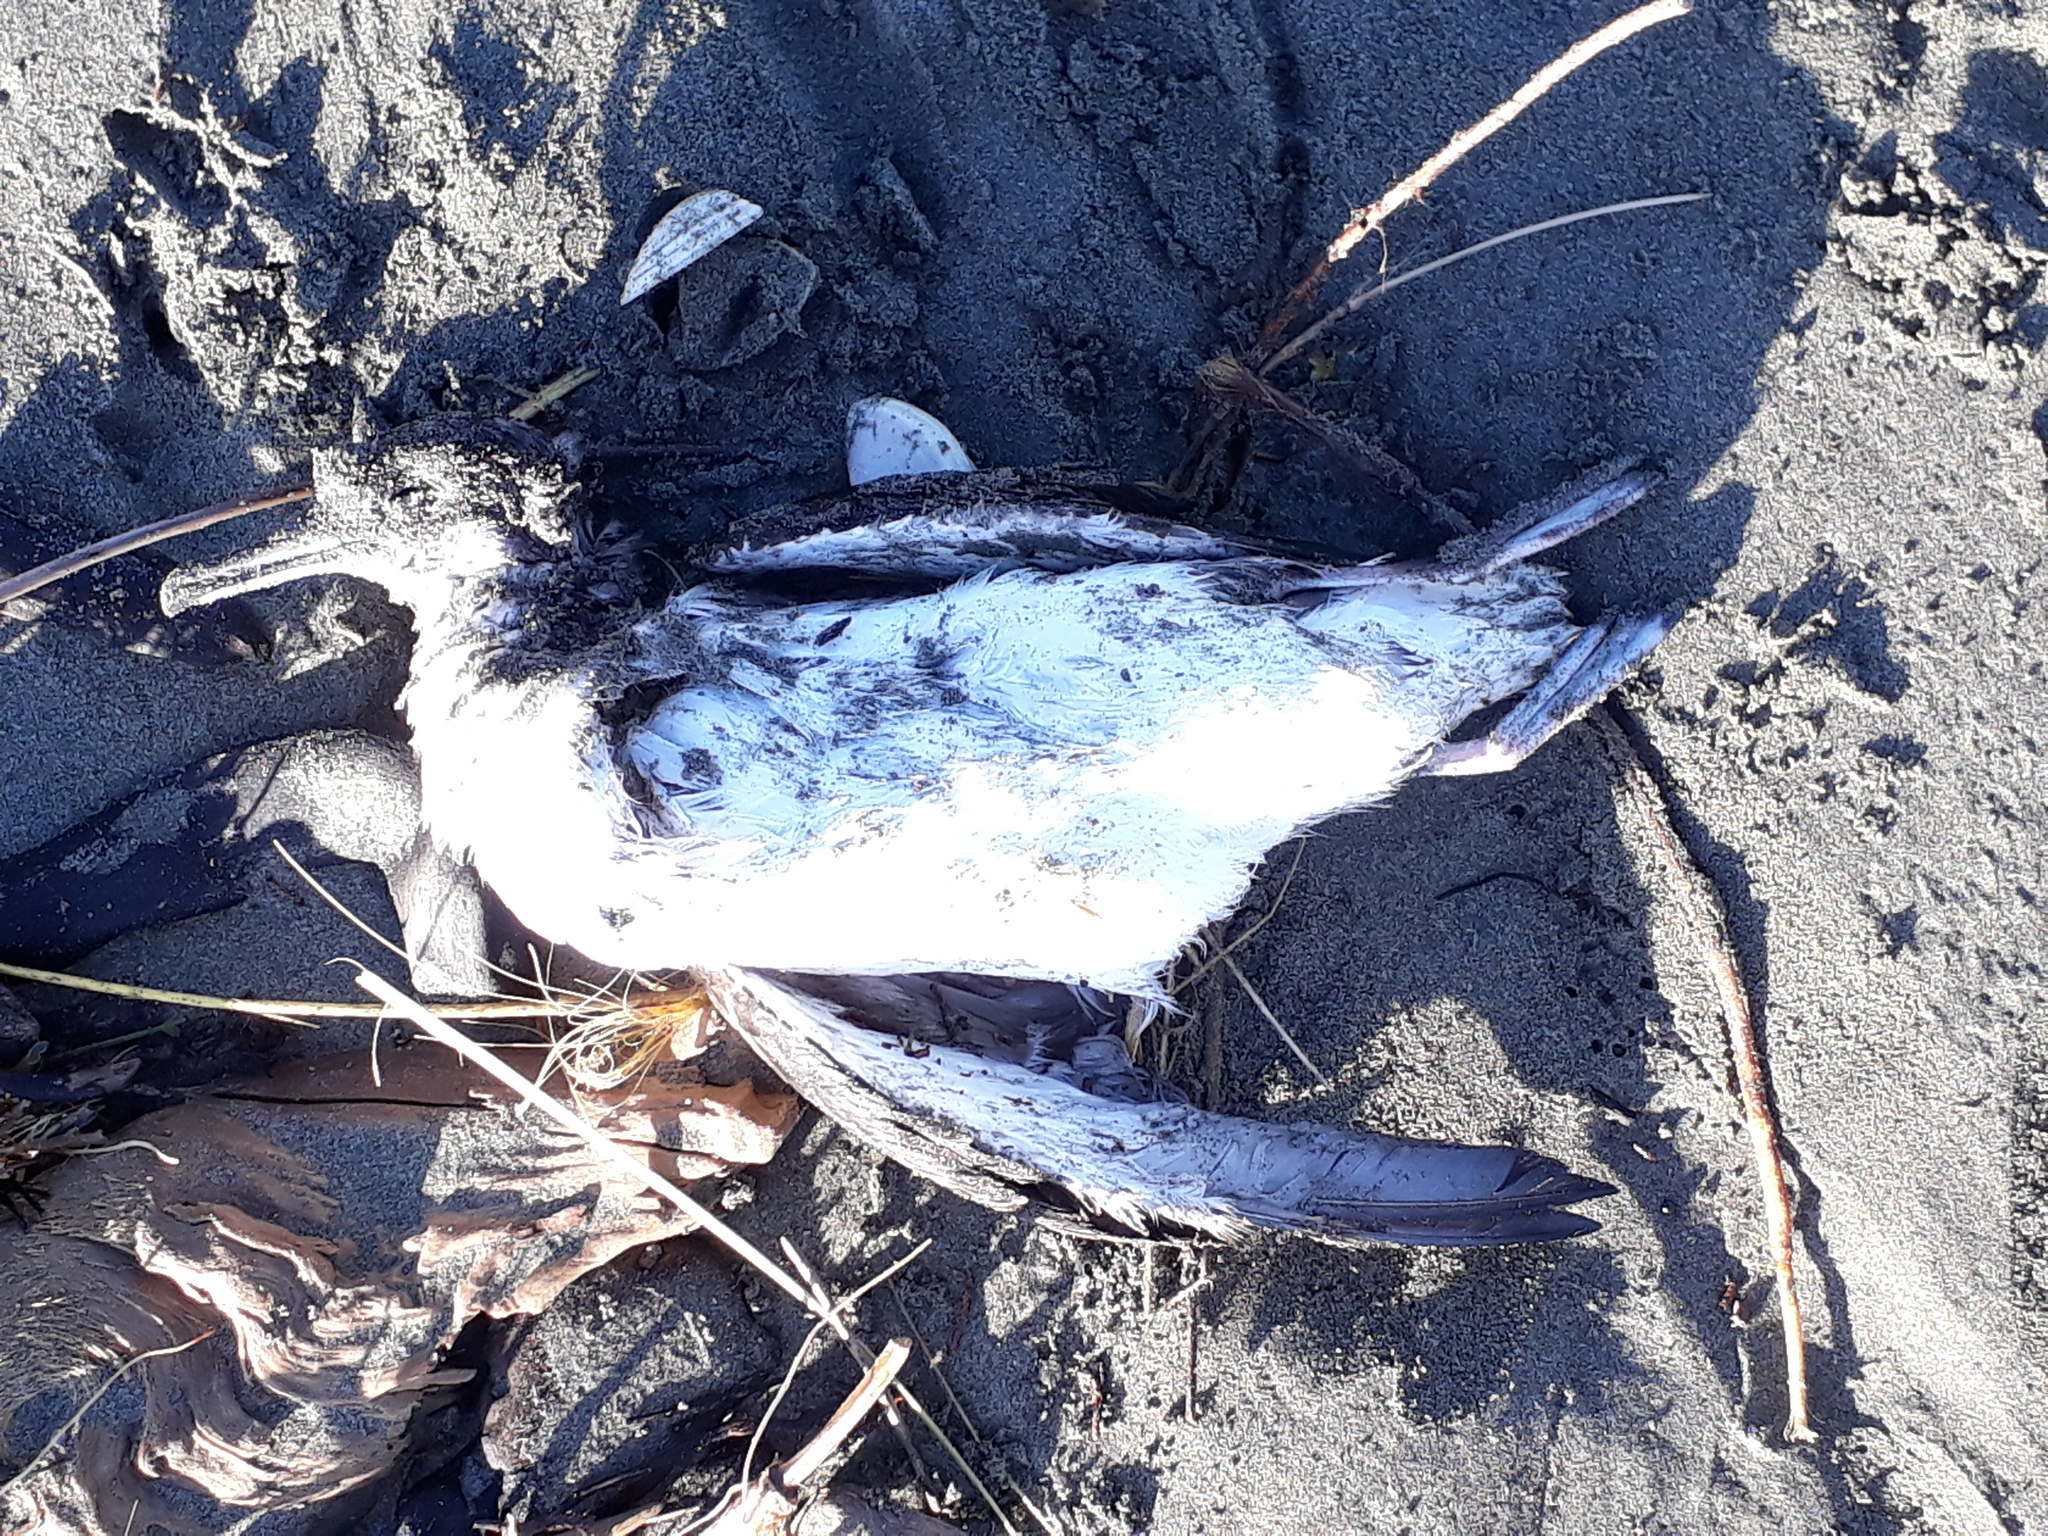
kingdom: Animalia
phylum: Chordata
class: Aves
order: Procellariiformes
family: Procellariidae
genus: Puffinus
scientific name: Puffinus gavia
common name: Fluttering shearwater
